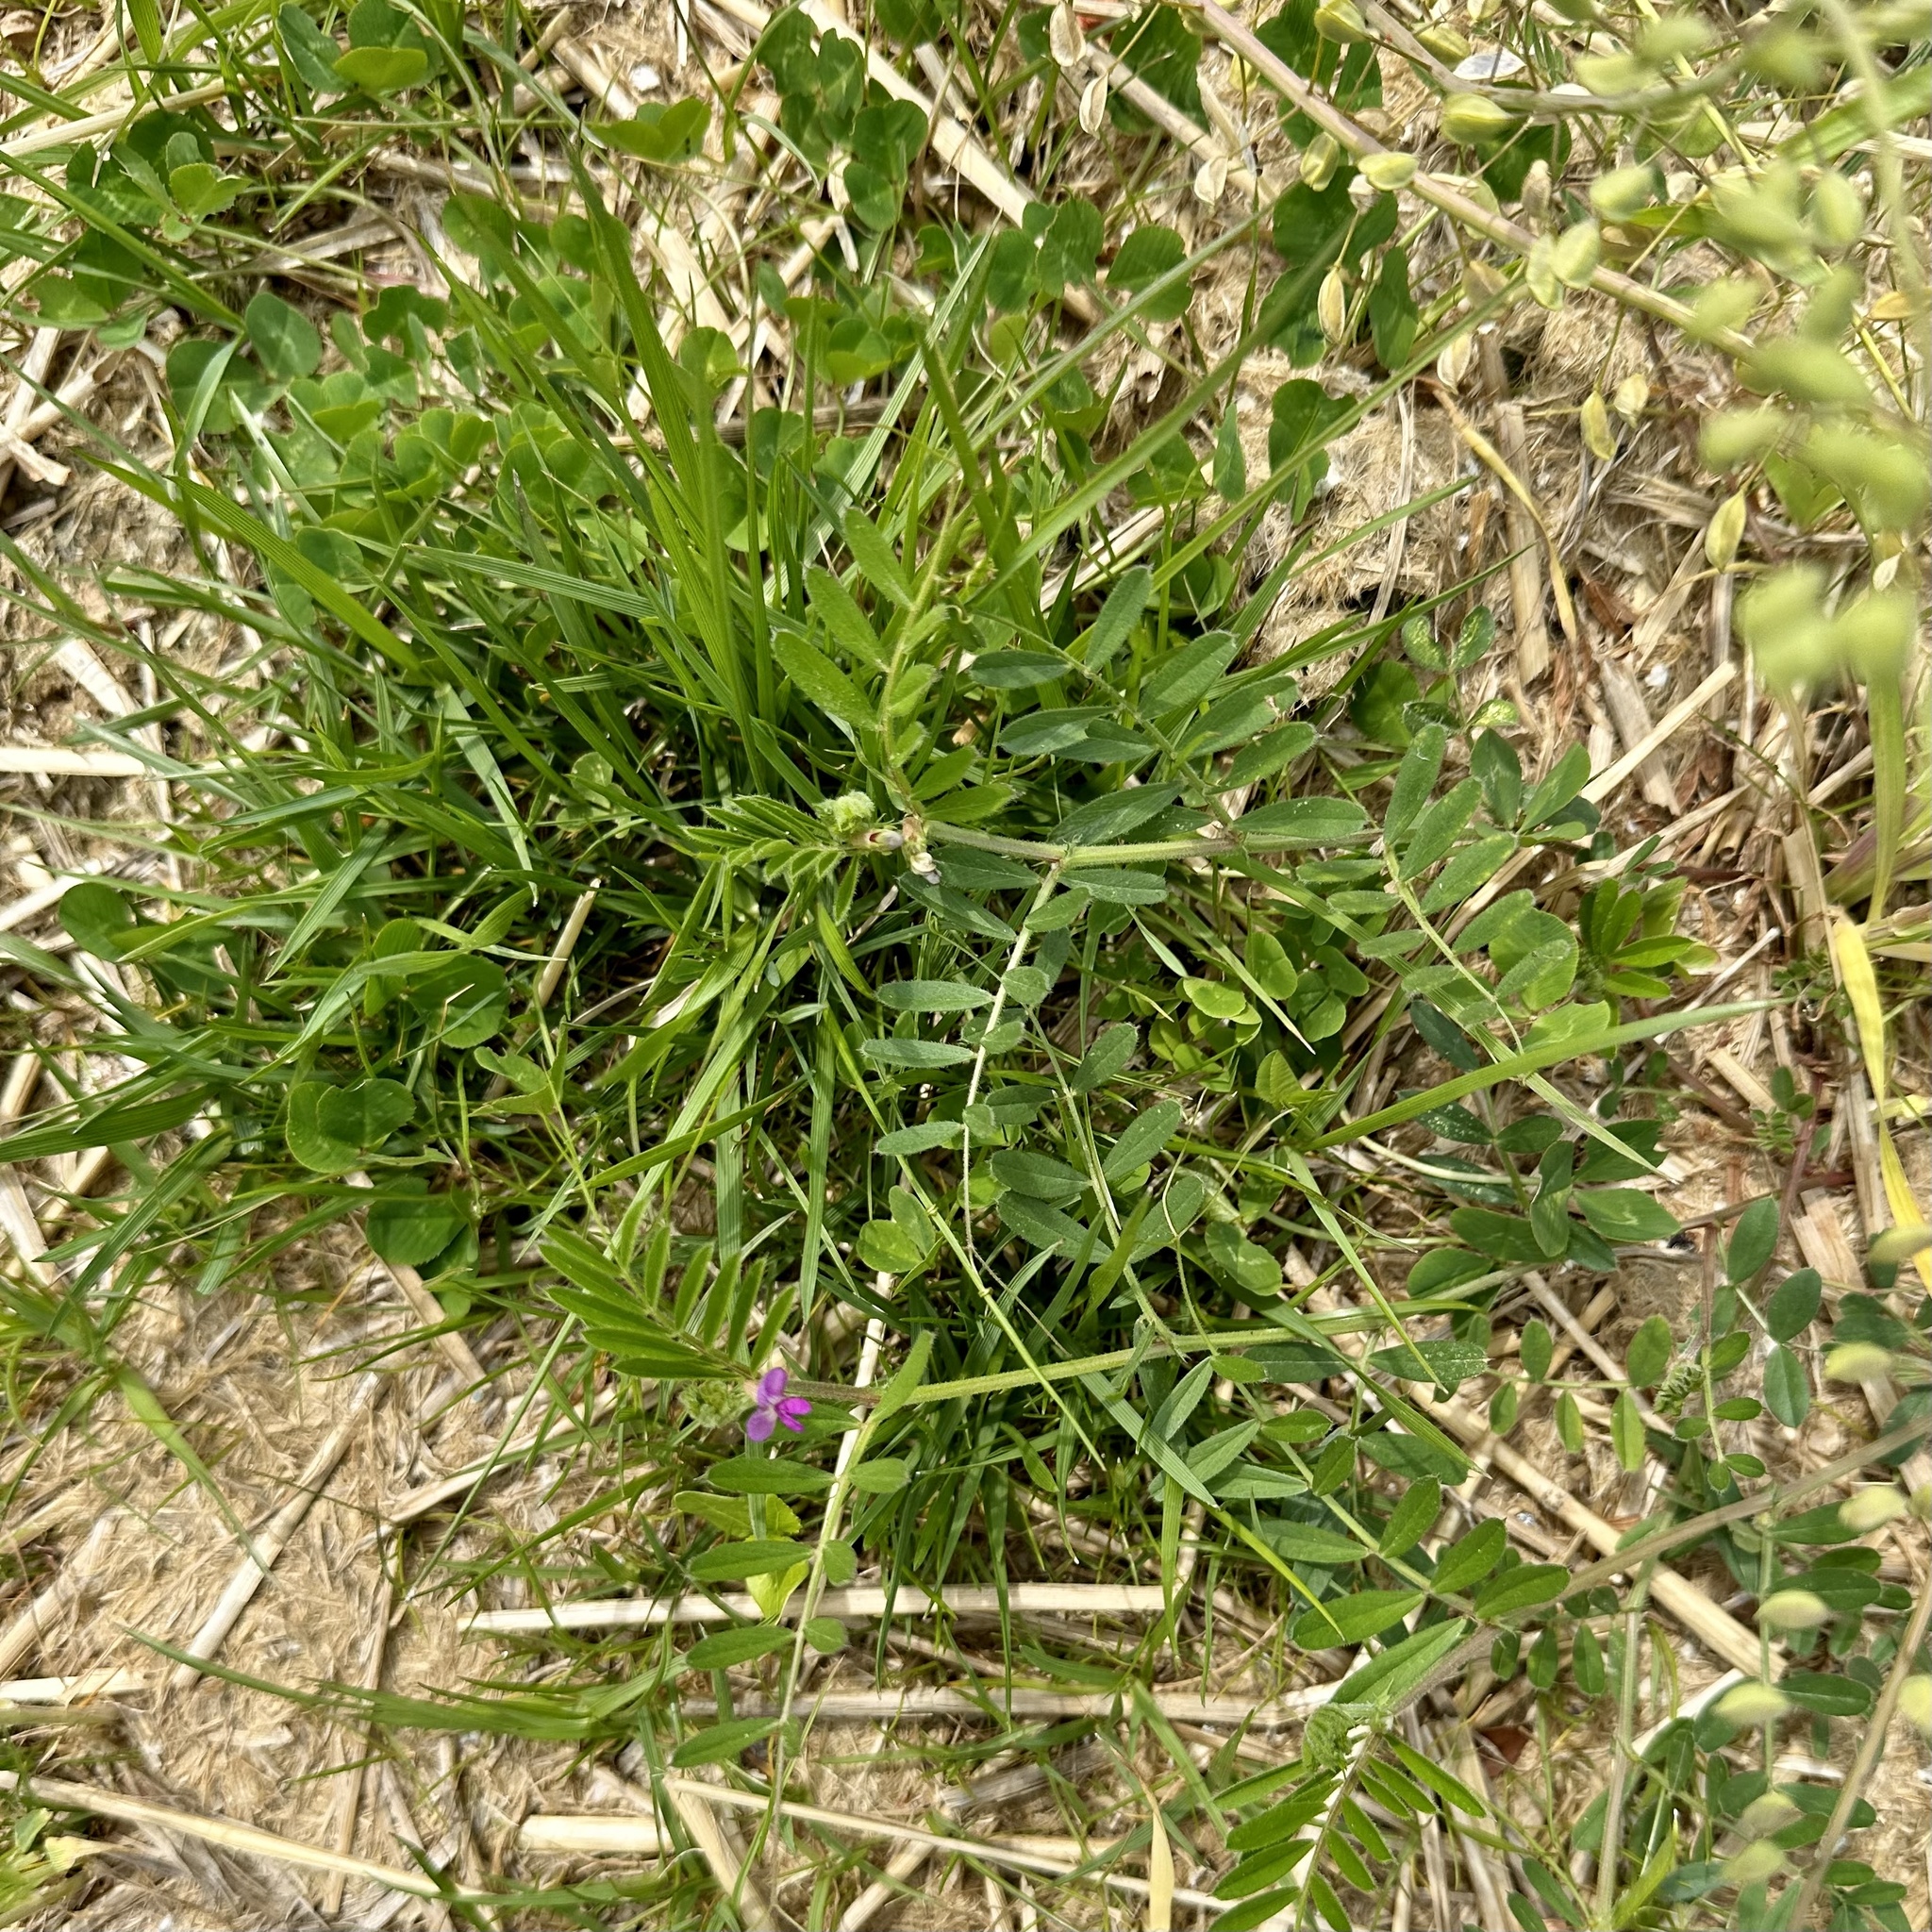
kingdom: Plantae
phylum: Tracheophyta
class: Magnoliopsida
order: Fabales
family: Fabaceae
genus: Vicia
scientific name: Vicia sativa
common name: Garden vetch
